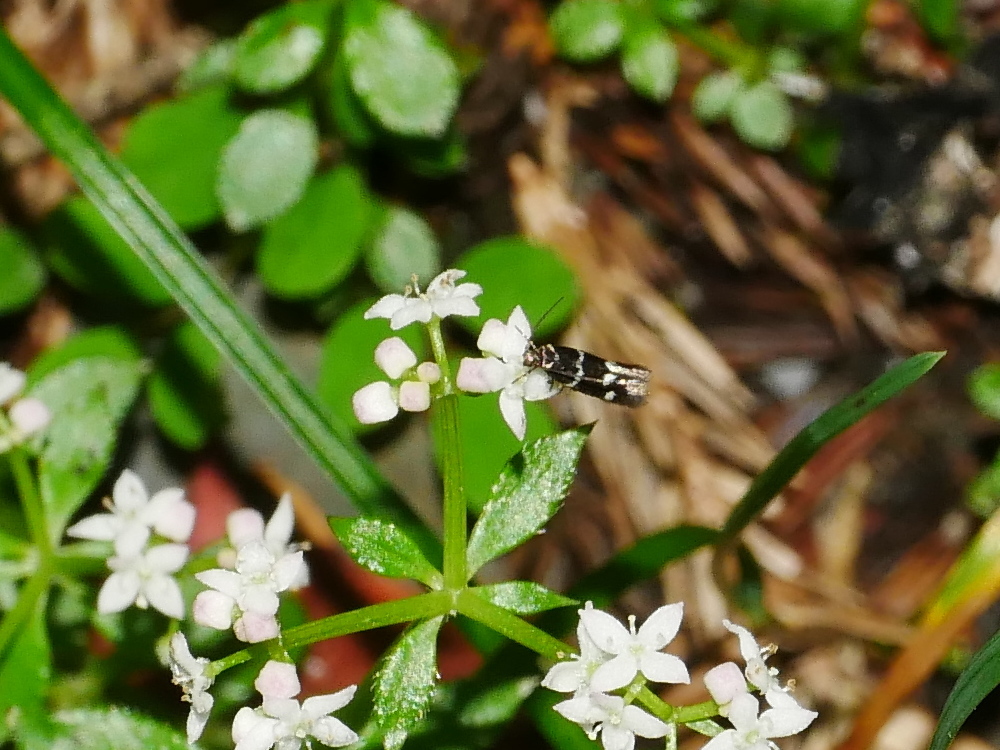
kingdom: Plantae
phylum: Tracheophyta
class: Magnoliopsida
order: Gentianales
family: Rubiaceae
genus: Galium
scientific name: Galium echinocarpum
